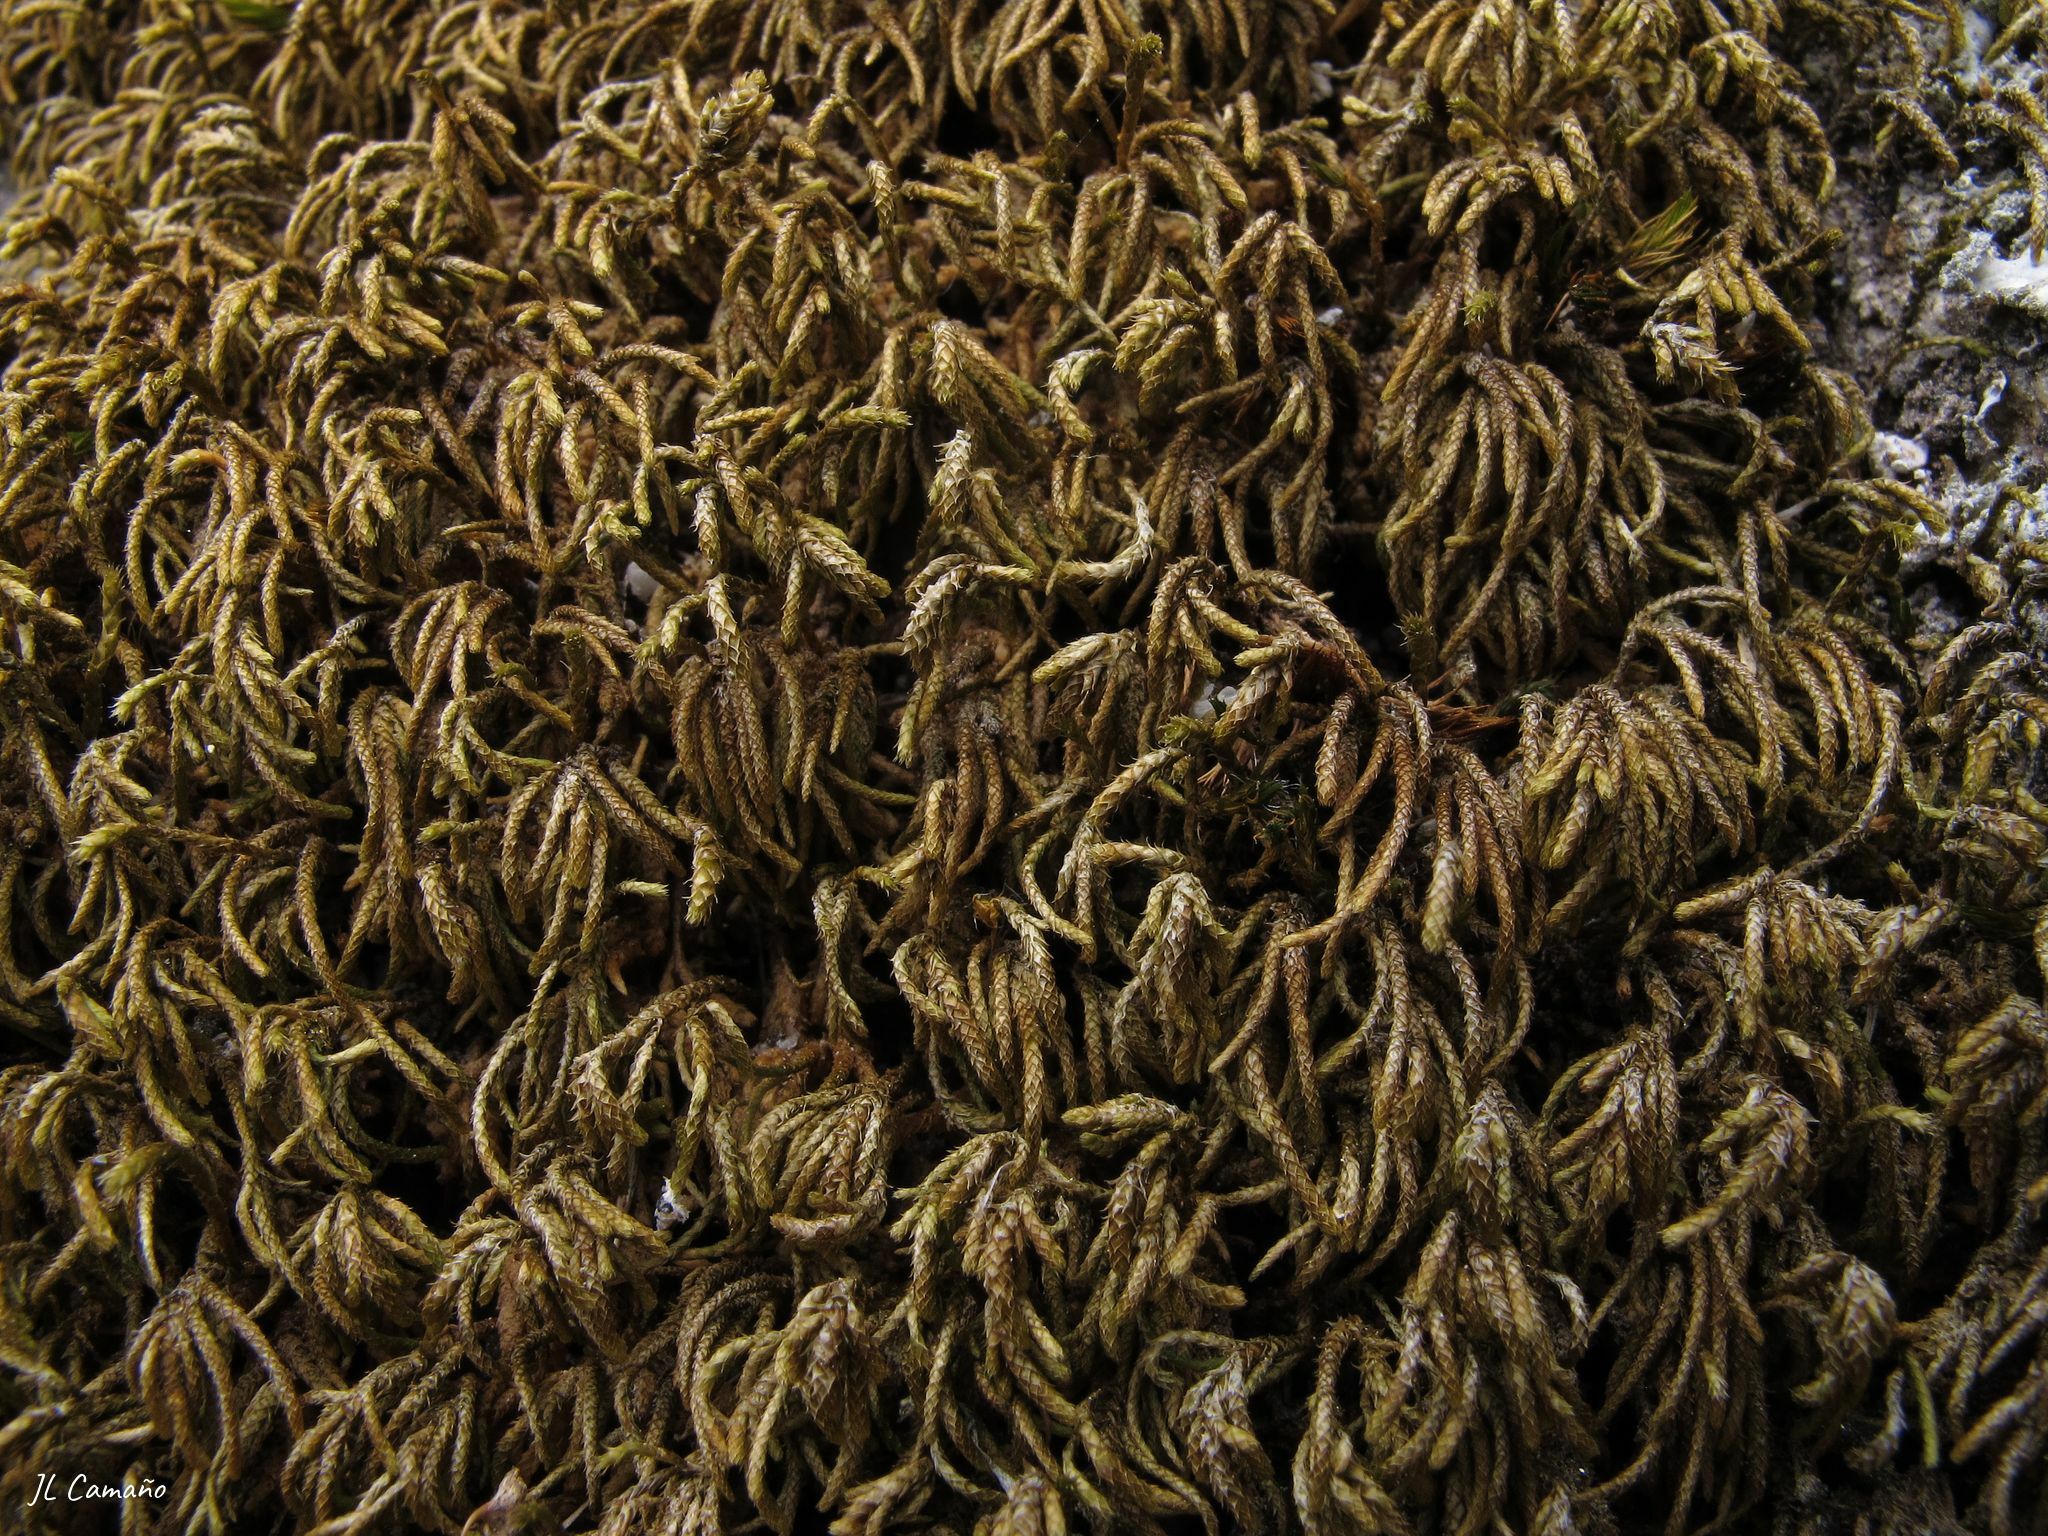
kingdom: Plantae
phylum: Bryophyta
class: Bryopsida
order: Hypnales
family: Lembophyllaceae
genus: Nogopterium
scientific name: Nogopterium gracile
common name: Bird's-foot wing-moss
